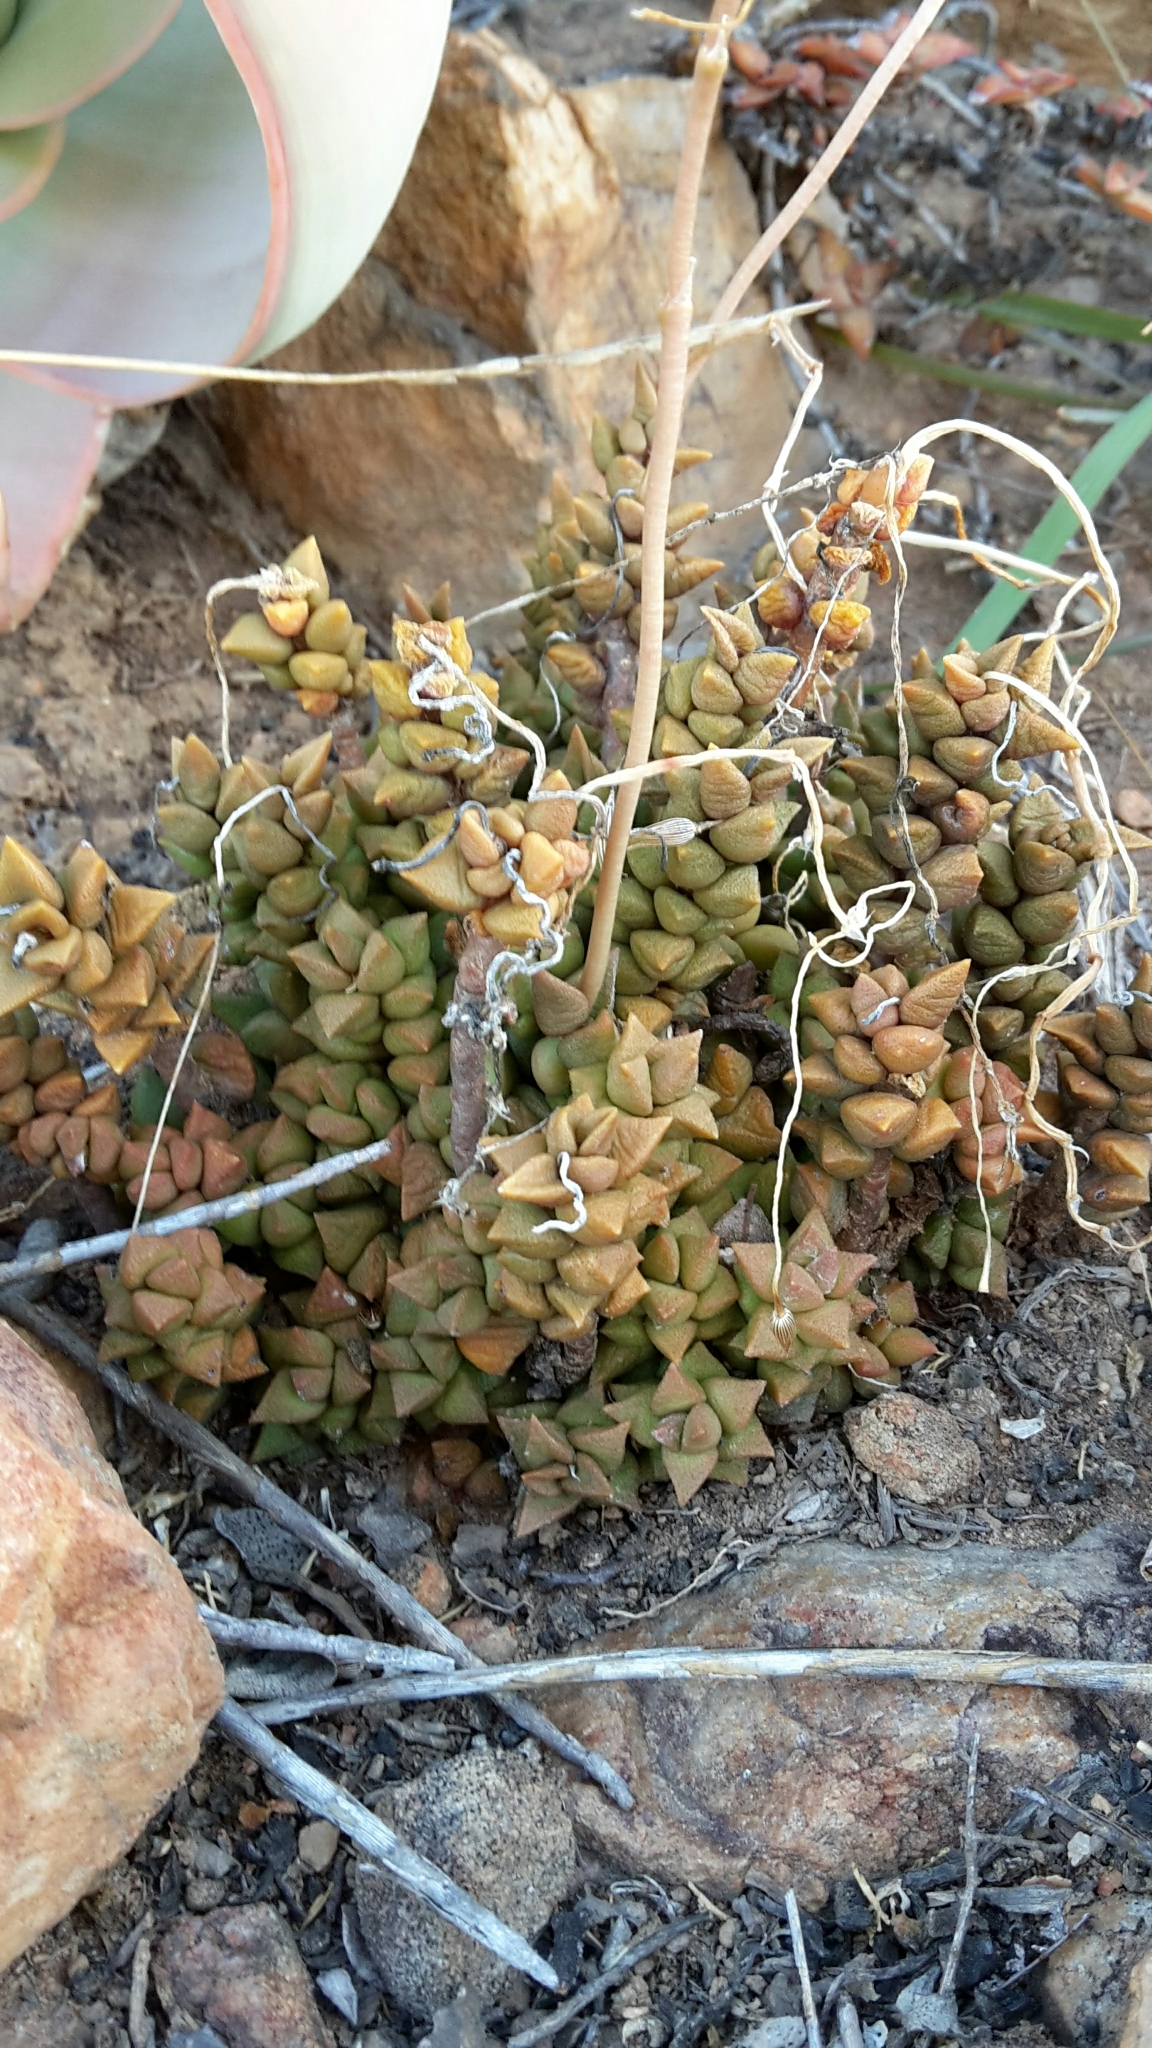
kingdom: Plantae
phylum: Tracheophyta
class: Magnoliopsida
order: Caryophyllales
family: Anacampserotaceae
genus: Anacampseros
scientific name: Anacampseros arachnoides
